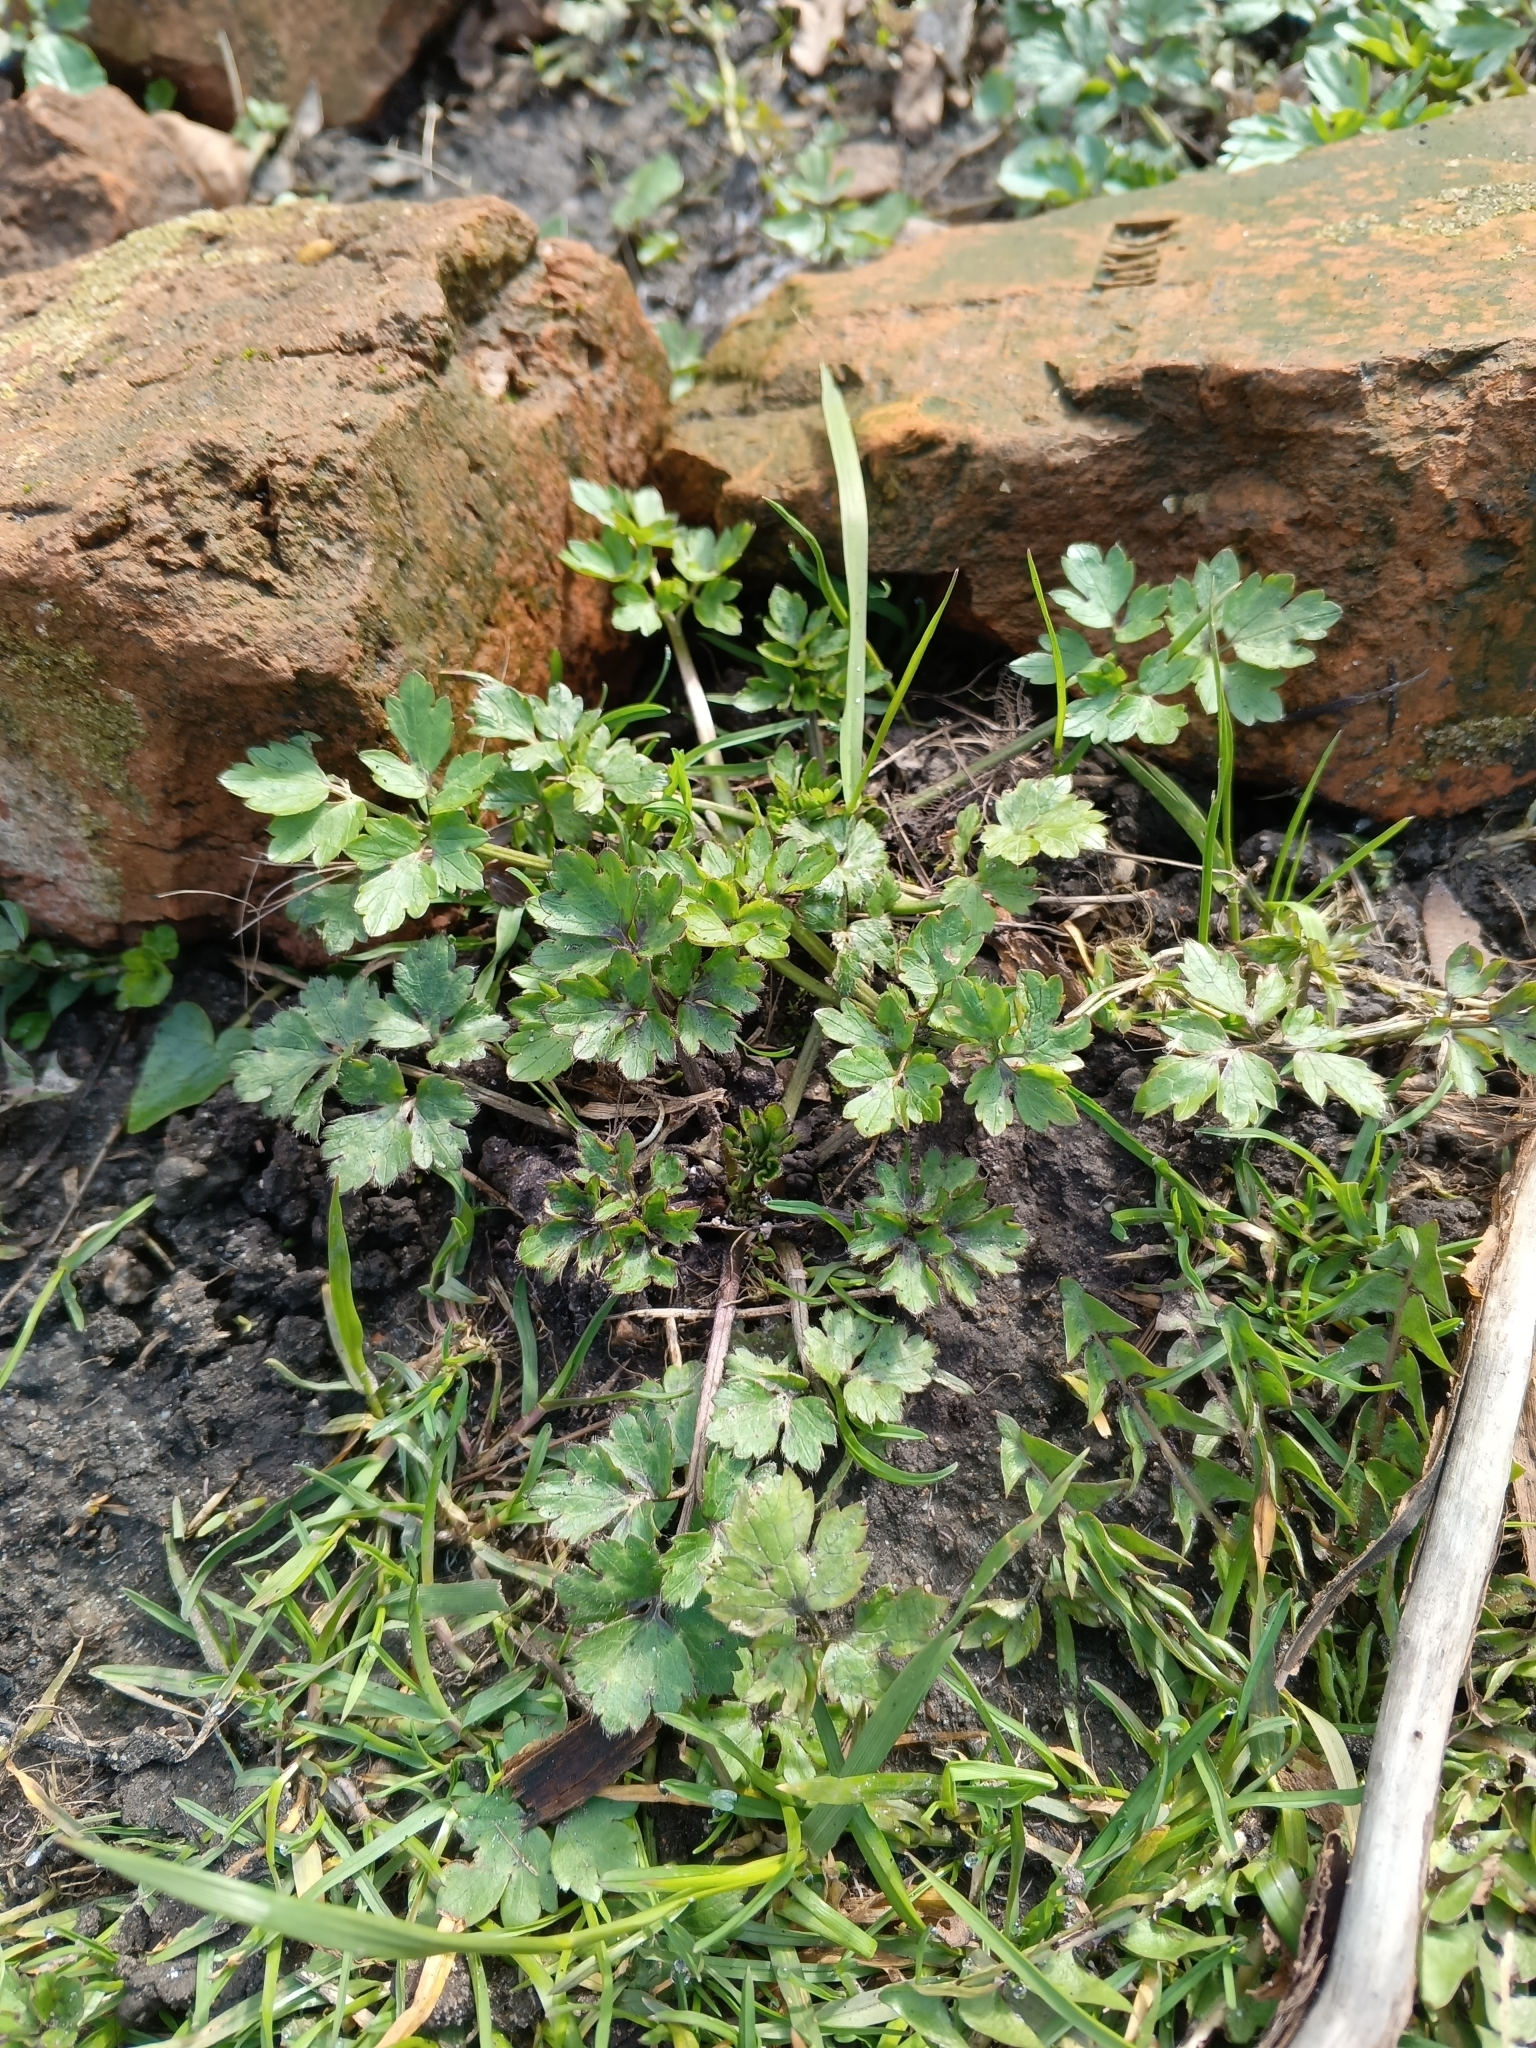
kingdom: Plantae
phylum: Tracheophyta
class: Magnoliopsida
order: Ranunculales
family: Ranunculaceae
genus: Ranunculus
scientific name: Ranunculus repens
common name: Creeping buttercup
